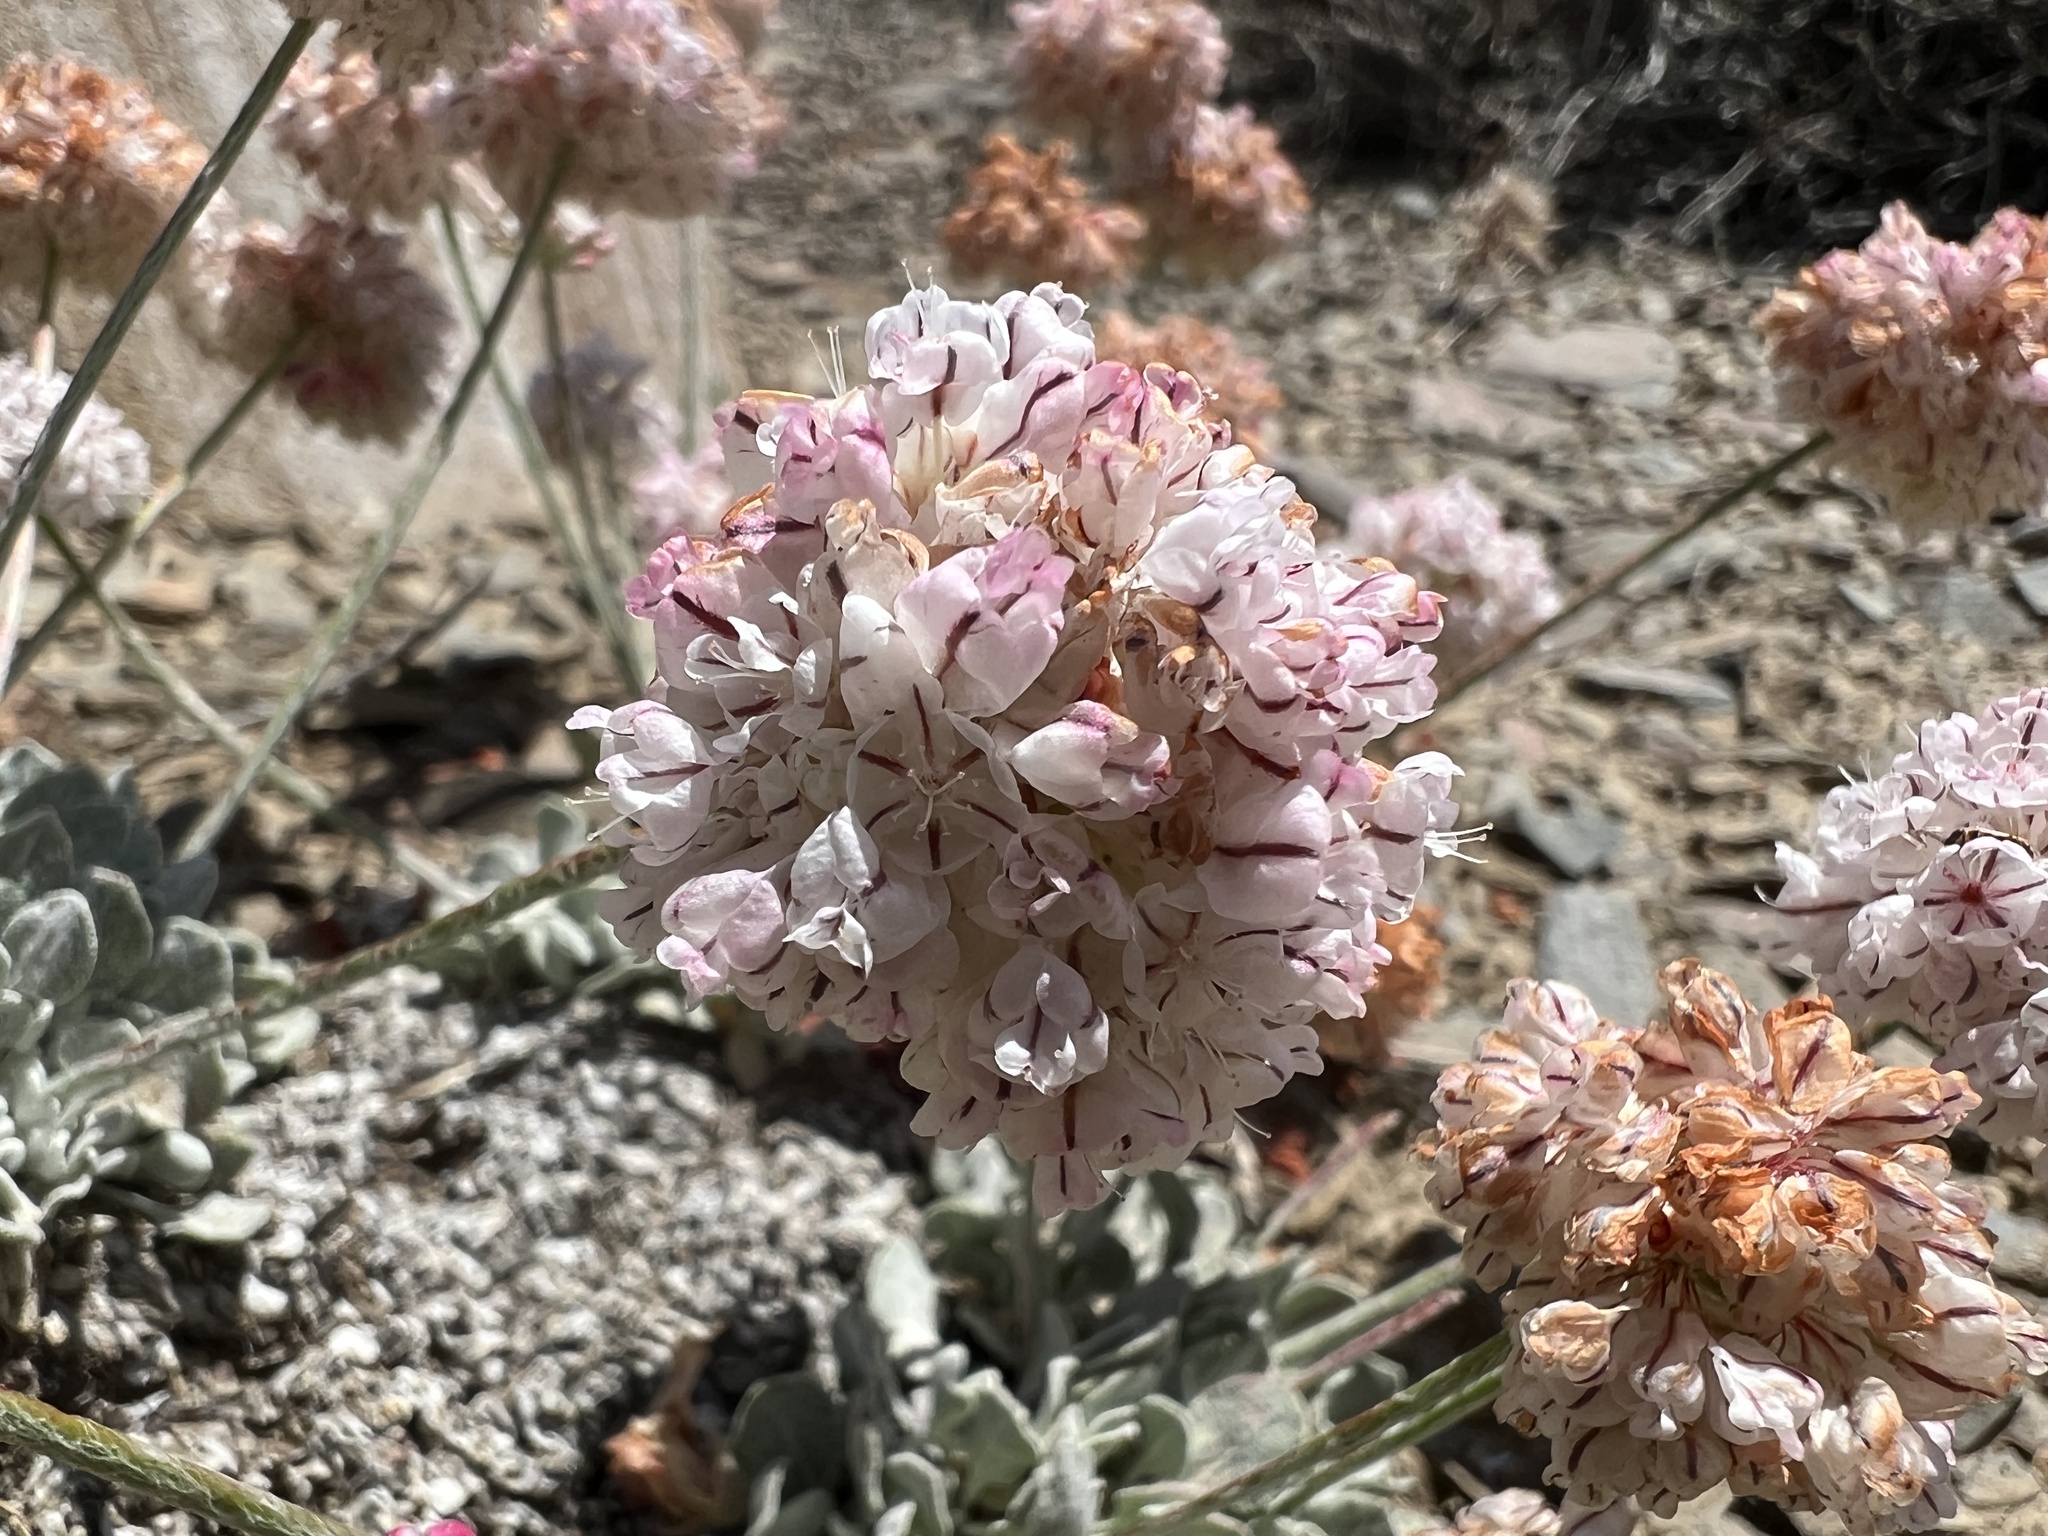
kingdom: Plantae
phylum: Tracheophyta
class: Magnoliopsida
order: Caryophyllales
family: Polygonaceae
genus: Eriogonum
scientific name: Eriogonum ovalifolium
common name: Cushion buckwheat
